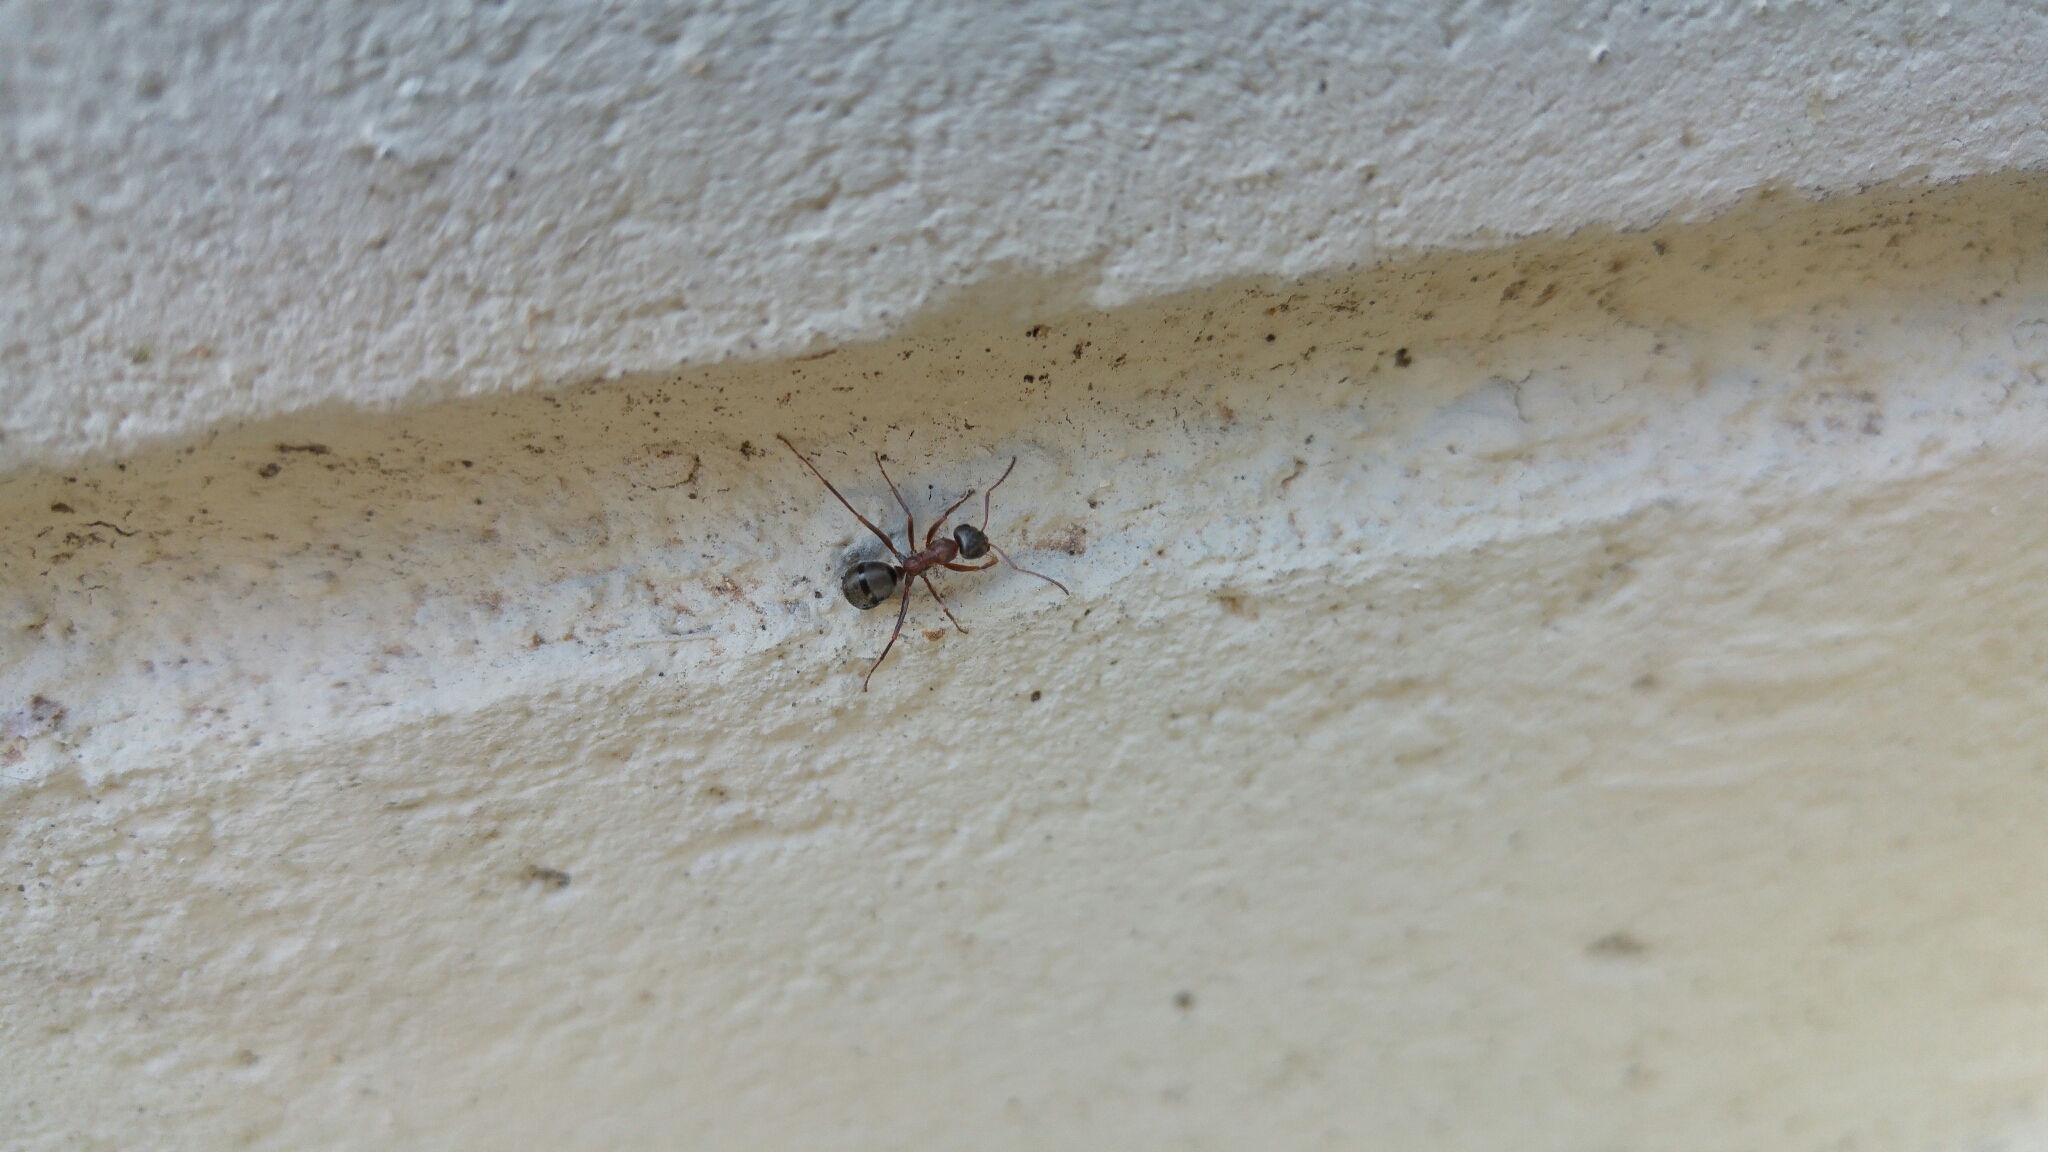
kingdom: Animalia
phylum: Arthropoda
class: Insecta
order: Hymenoptera
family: Formicidae
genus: Formica
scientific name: Formica rufibarbis
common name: Red barbed ant
